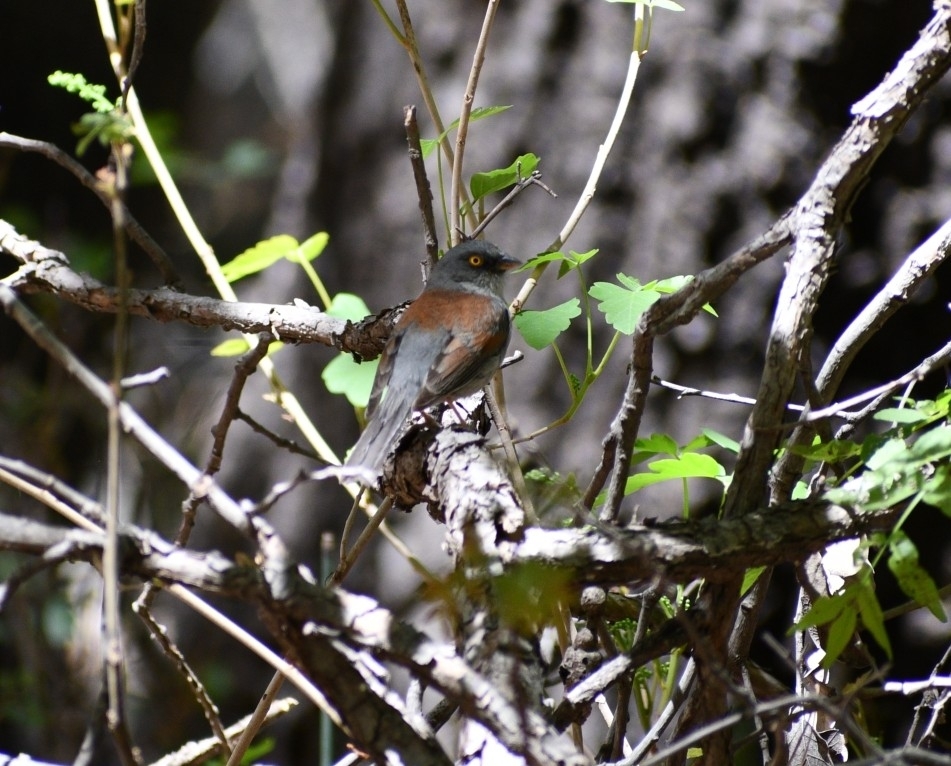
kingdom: Animalia
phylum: Chordata
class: Aves
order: Passeriformes
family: Passerellidae
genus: Junco
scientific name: Junco phaeonotus
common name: Yellow-eyed junco
